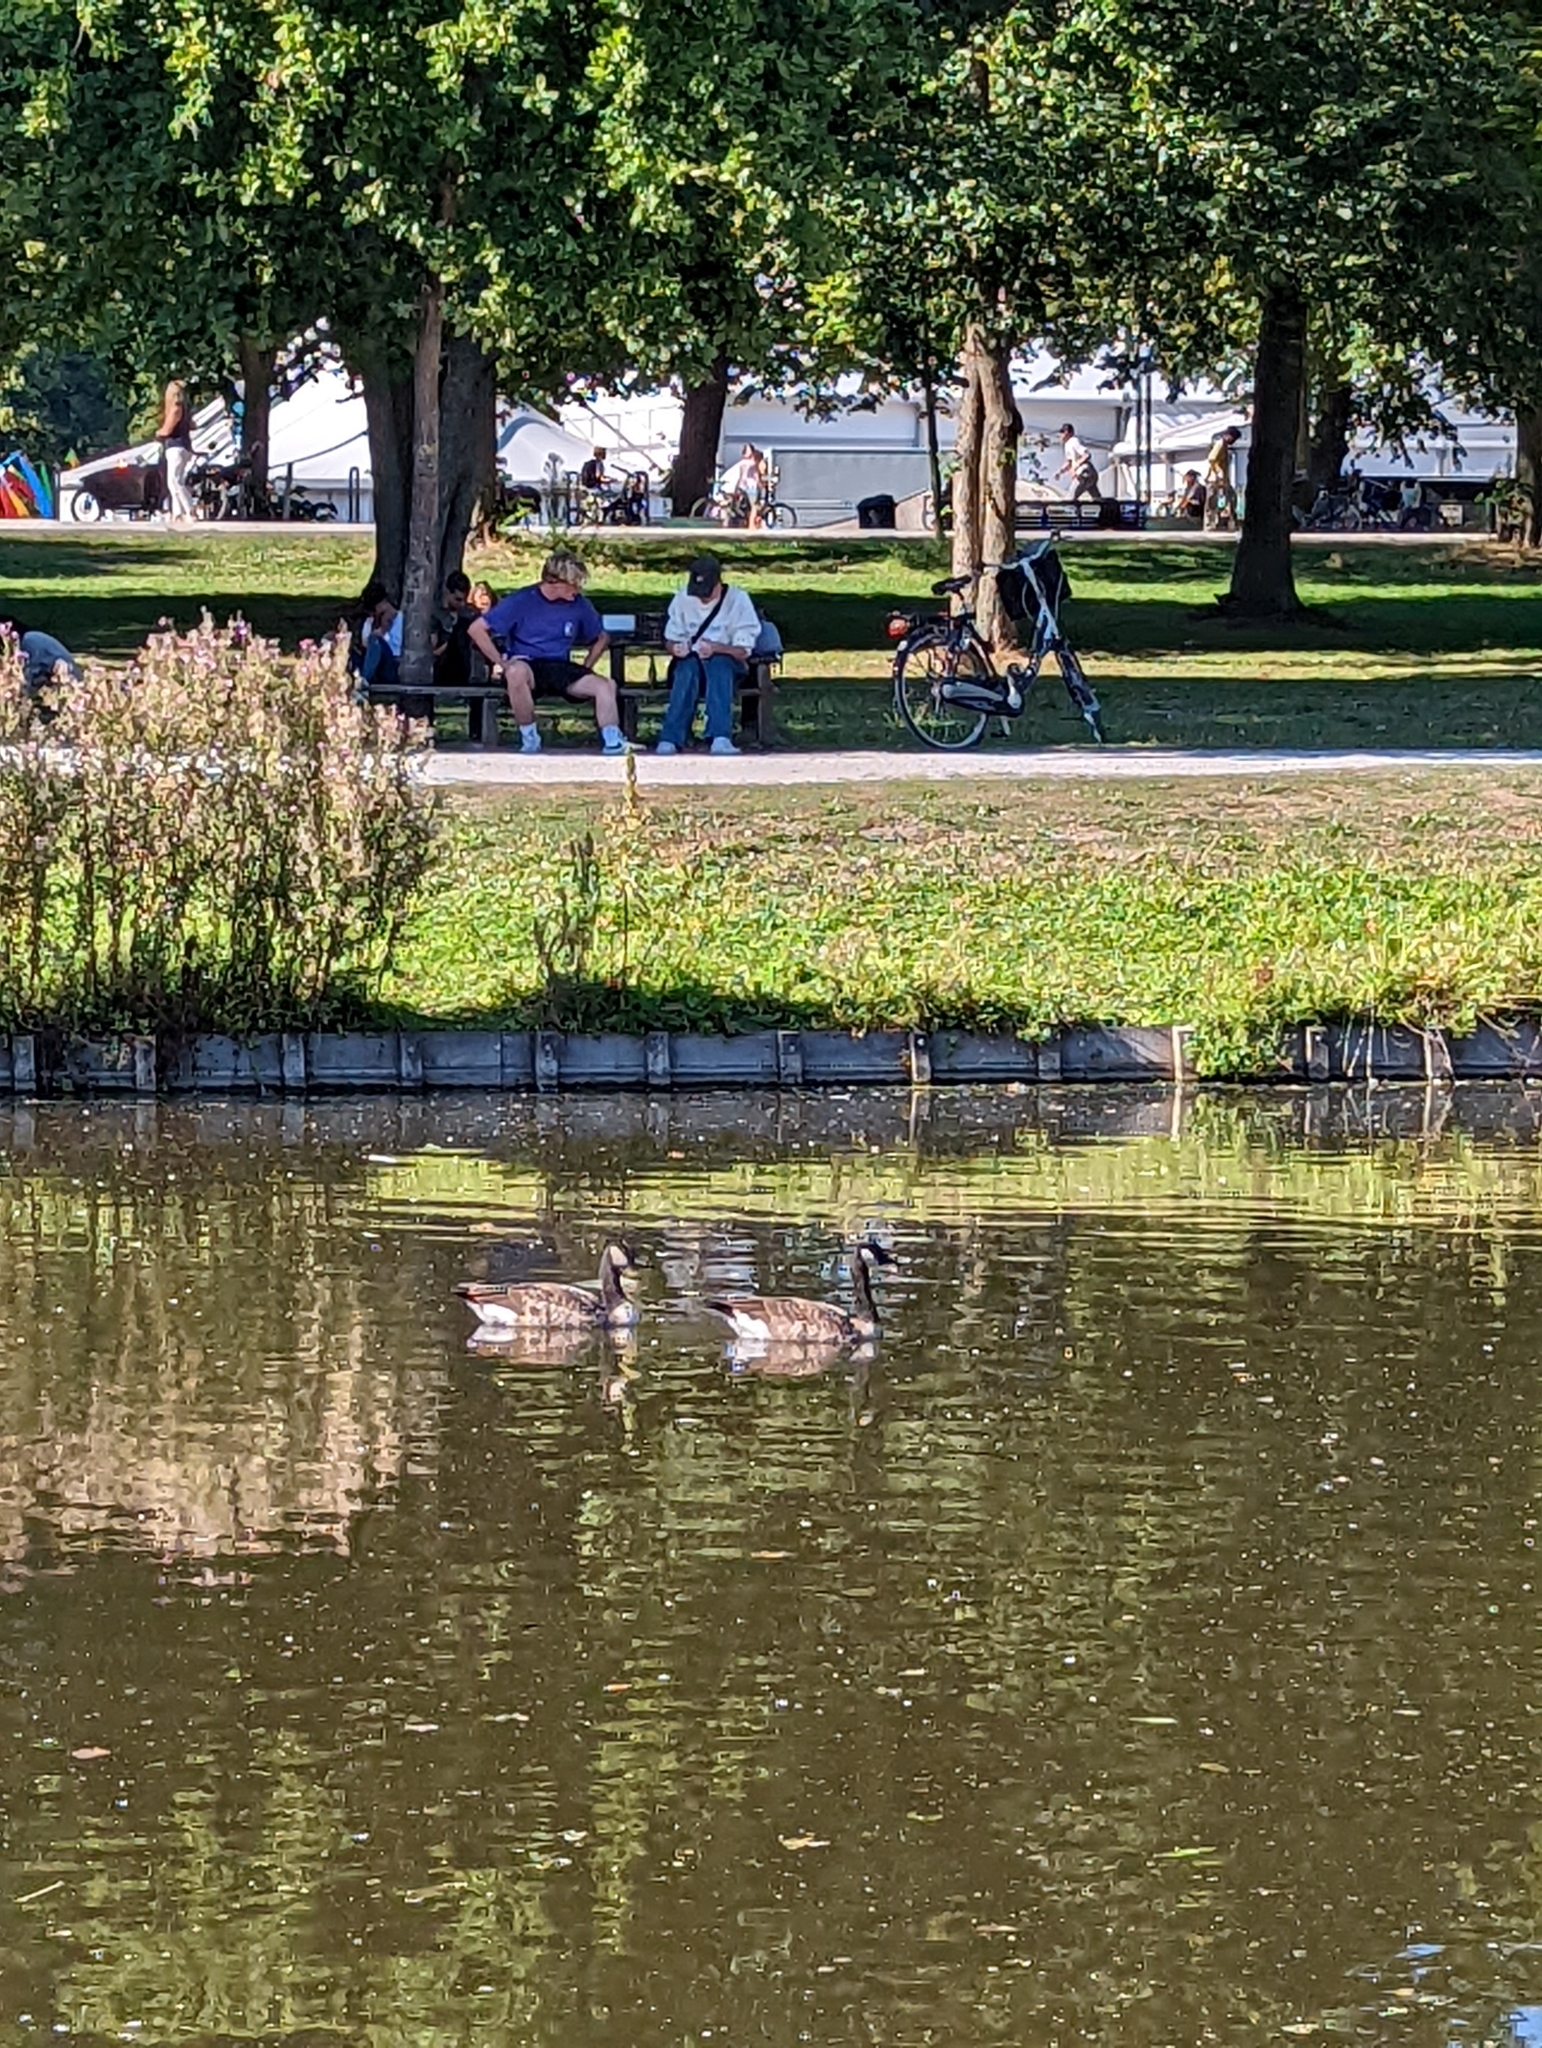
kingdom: Animalia
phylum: Chordata
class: Aves
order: Anseriformes
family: Anatidae
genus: Branta
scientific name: Branta canadensis
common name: Canada goose
